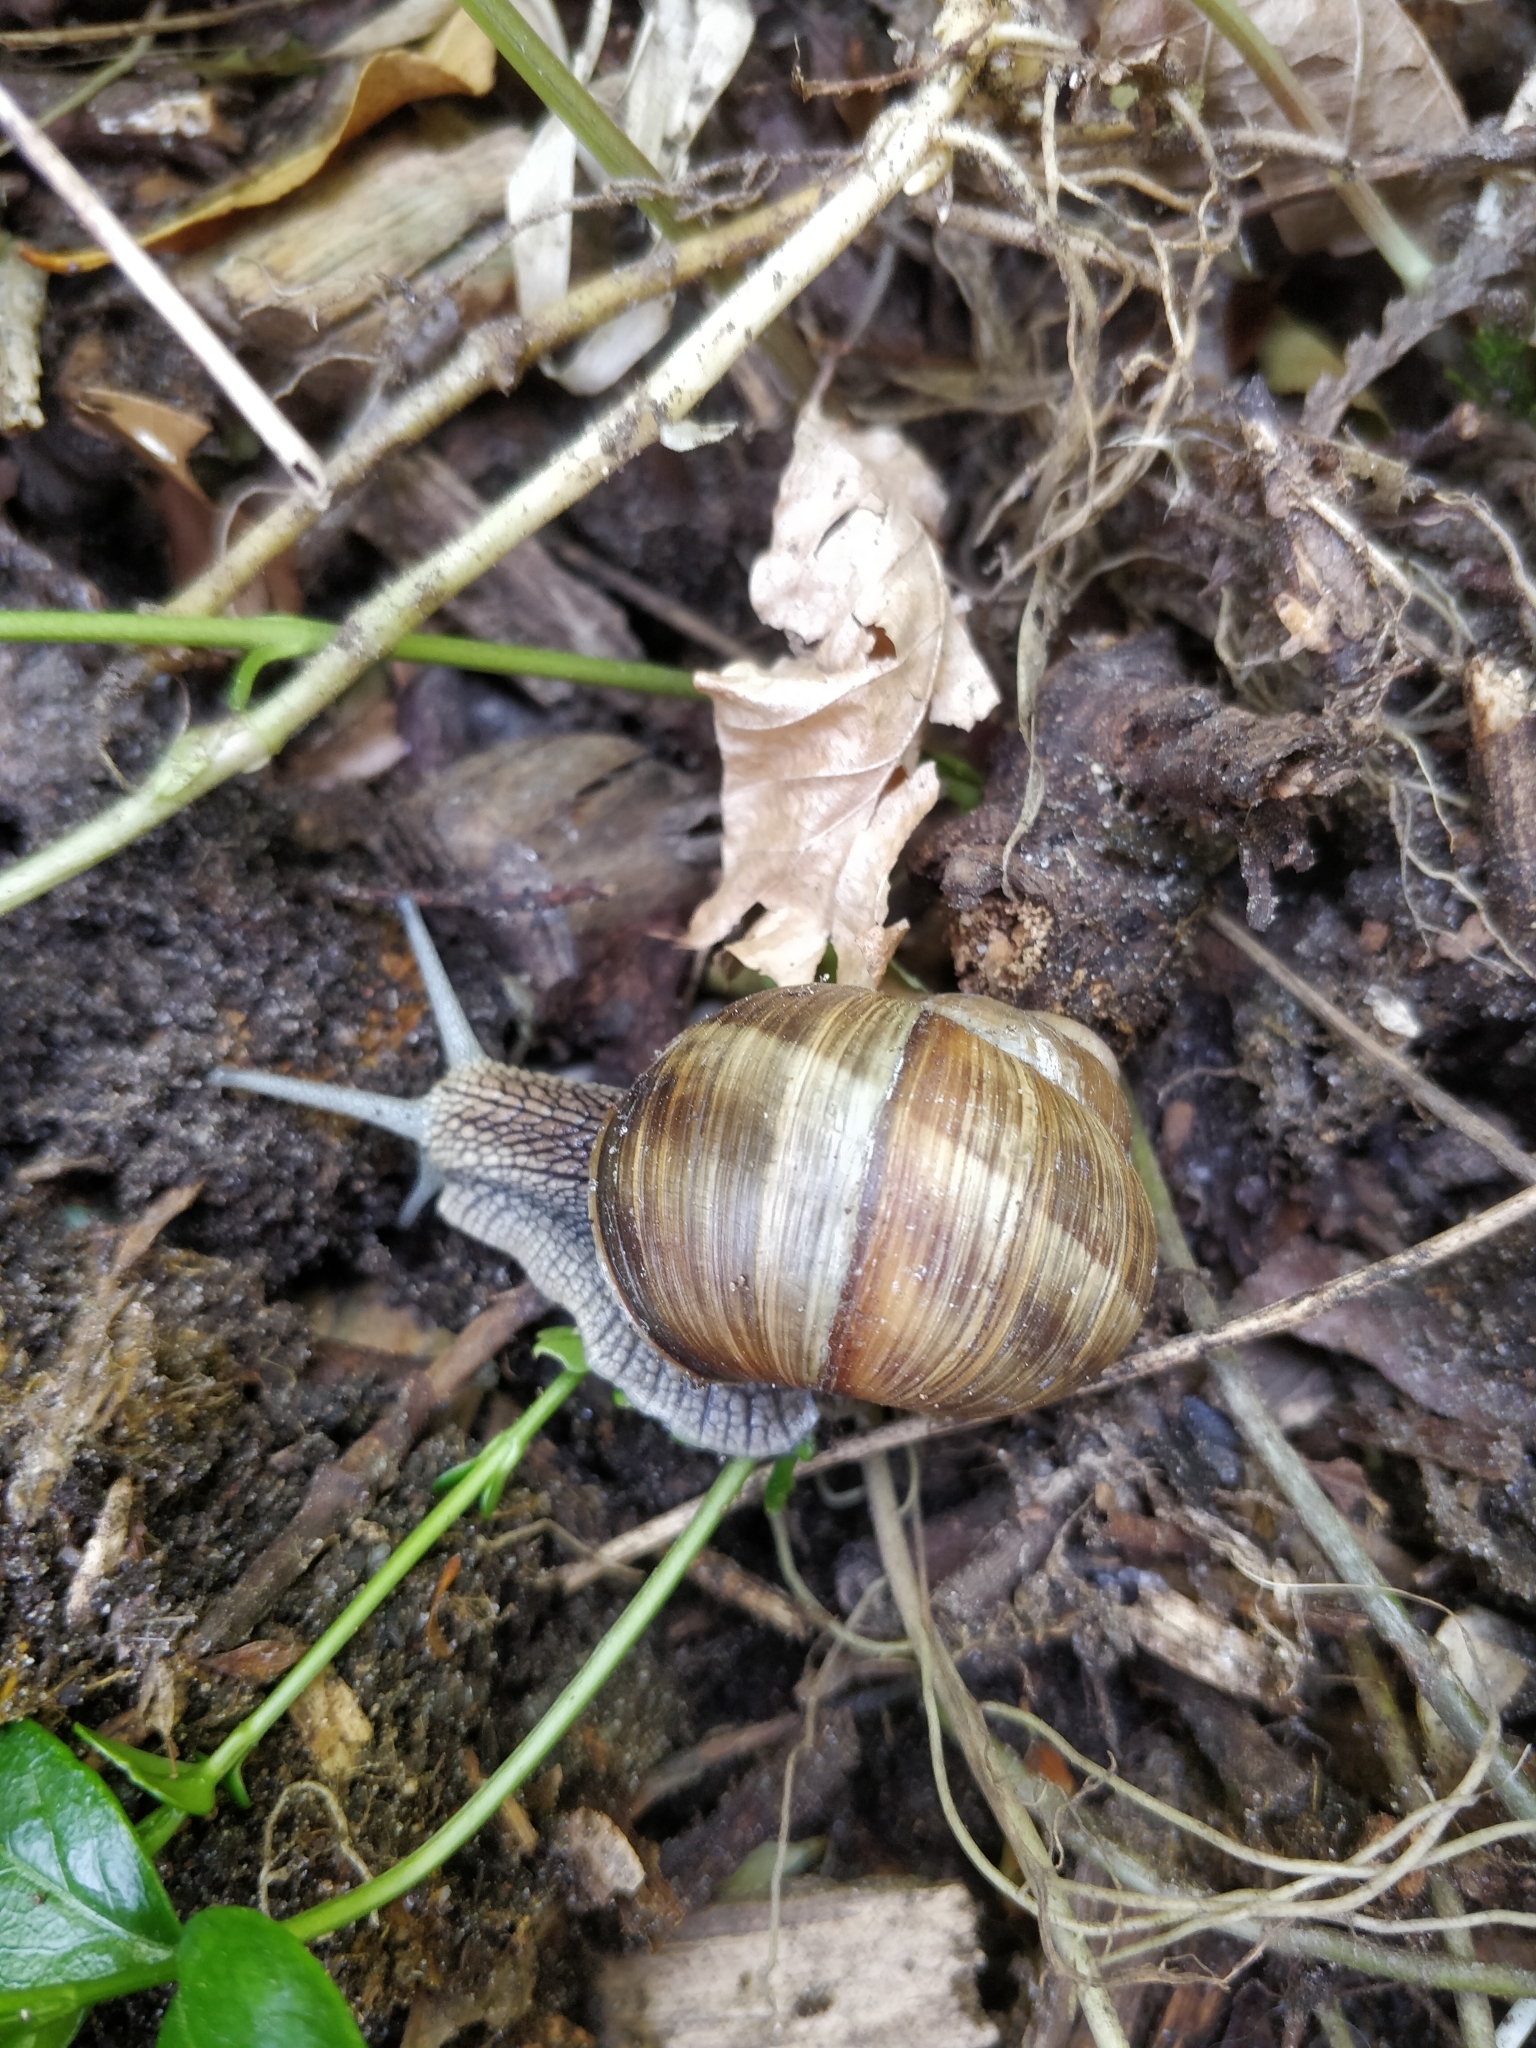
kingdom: Animalia
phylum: Mollusca
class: Gastropoda
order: Stylommatophora
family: Helicidae
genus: Helix
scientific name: Helix pomatia
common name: Roman snail
